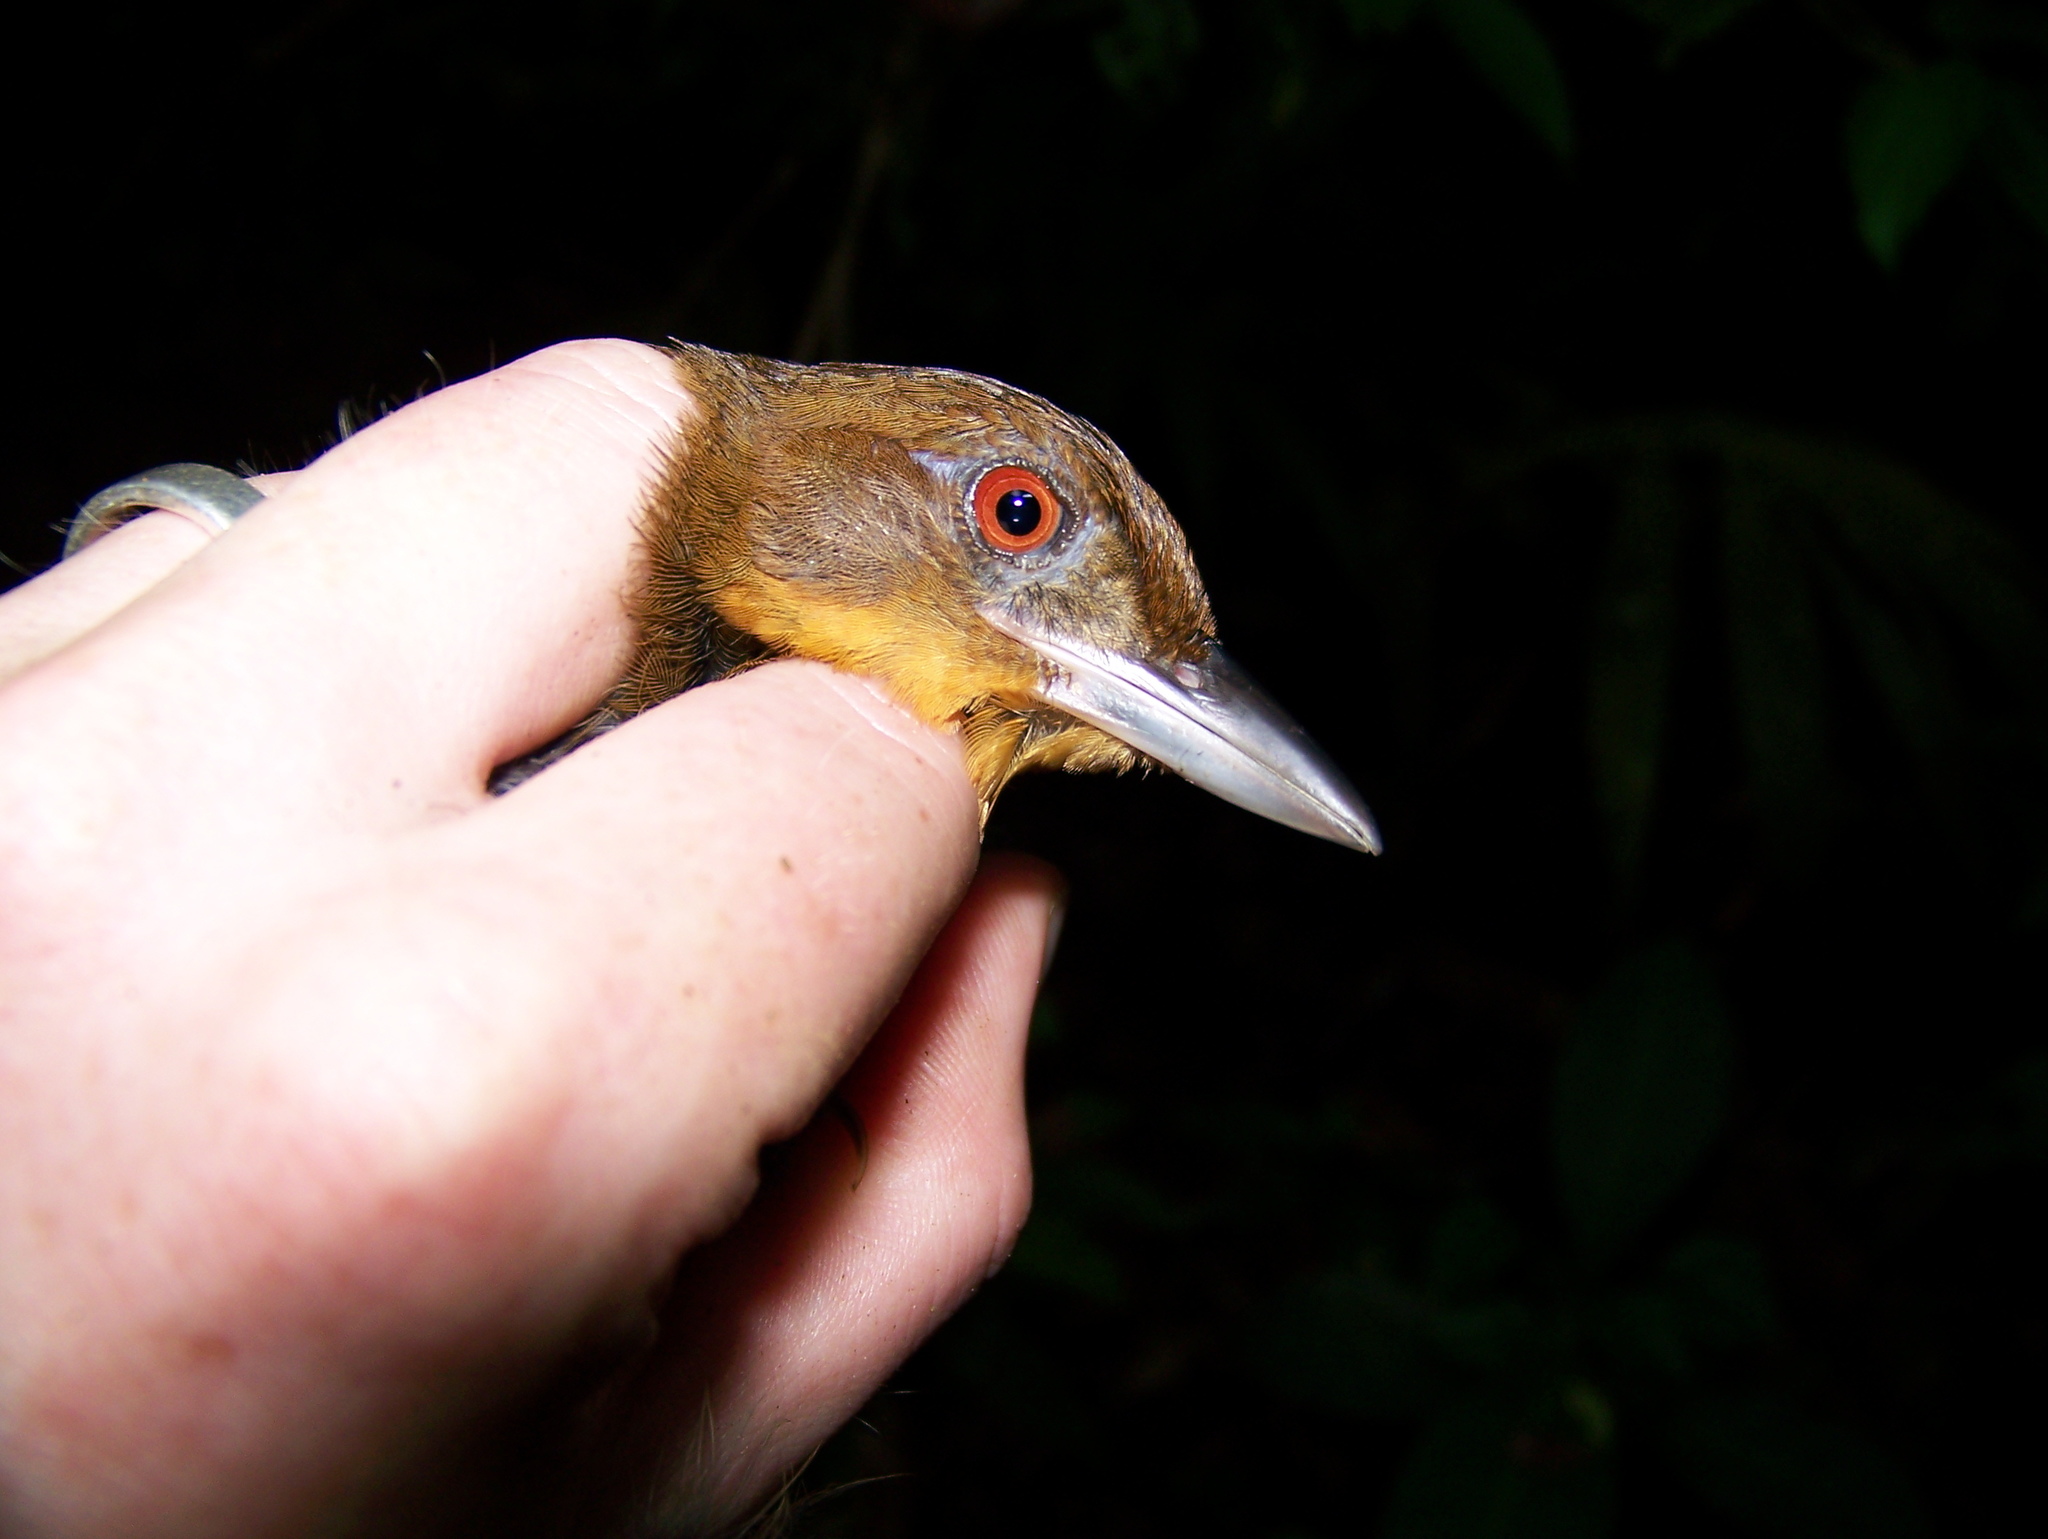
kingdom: Animalia
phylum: Chordata
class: Aves
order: Passeriformes
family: Furnariidae
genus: Automolus
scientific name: Automolus melanopezus
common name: Brown-rumped foliage-gleaner
